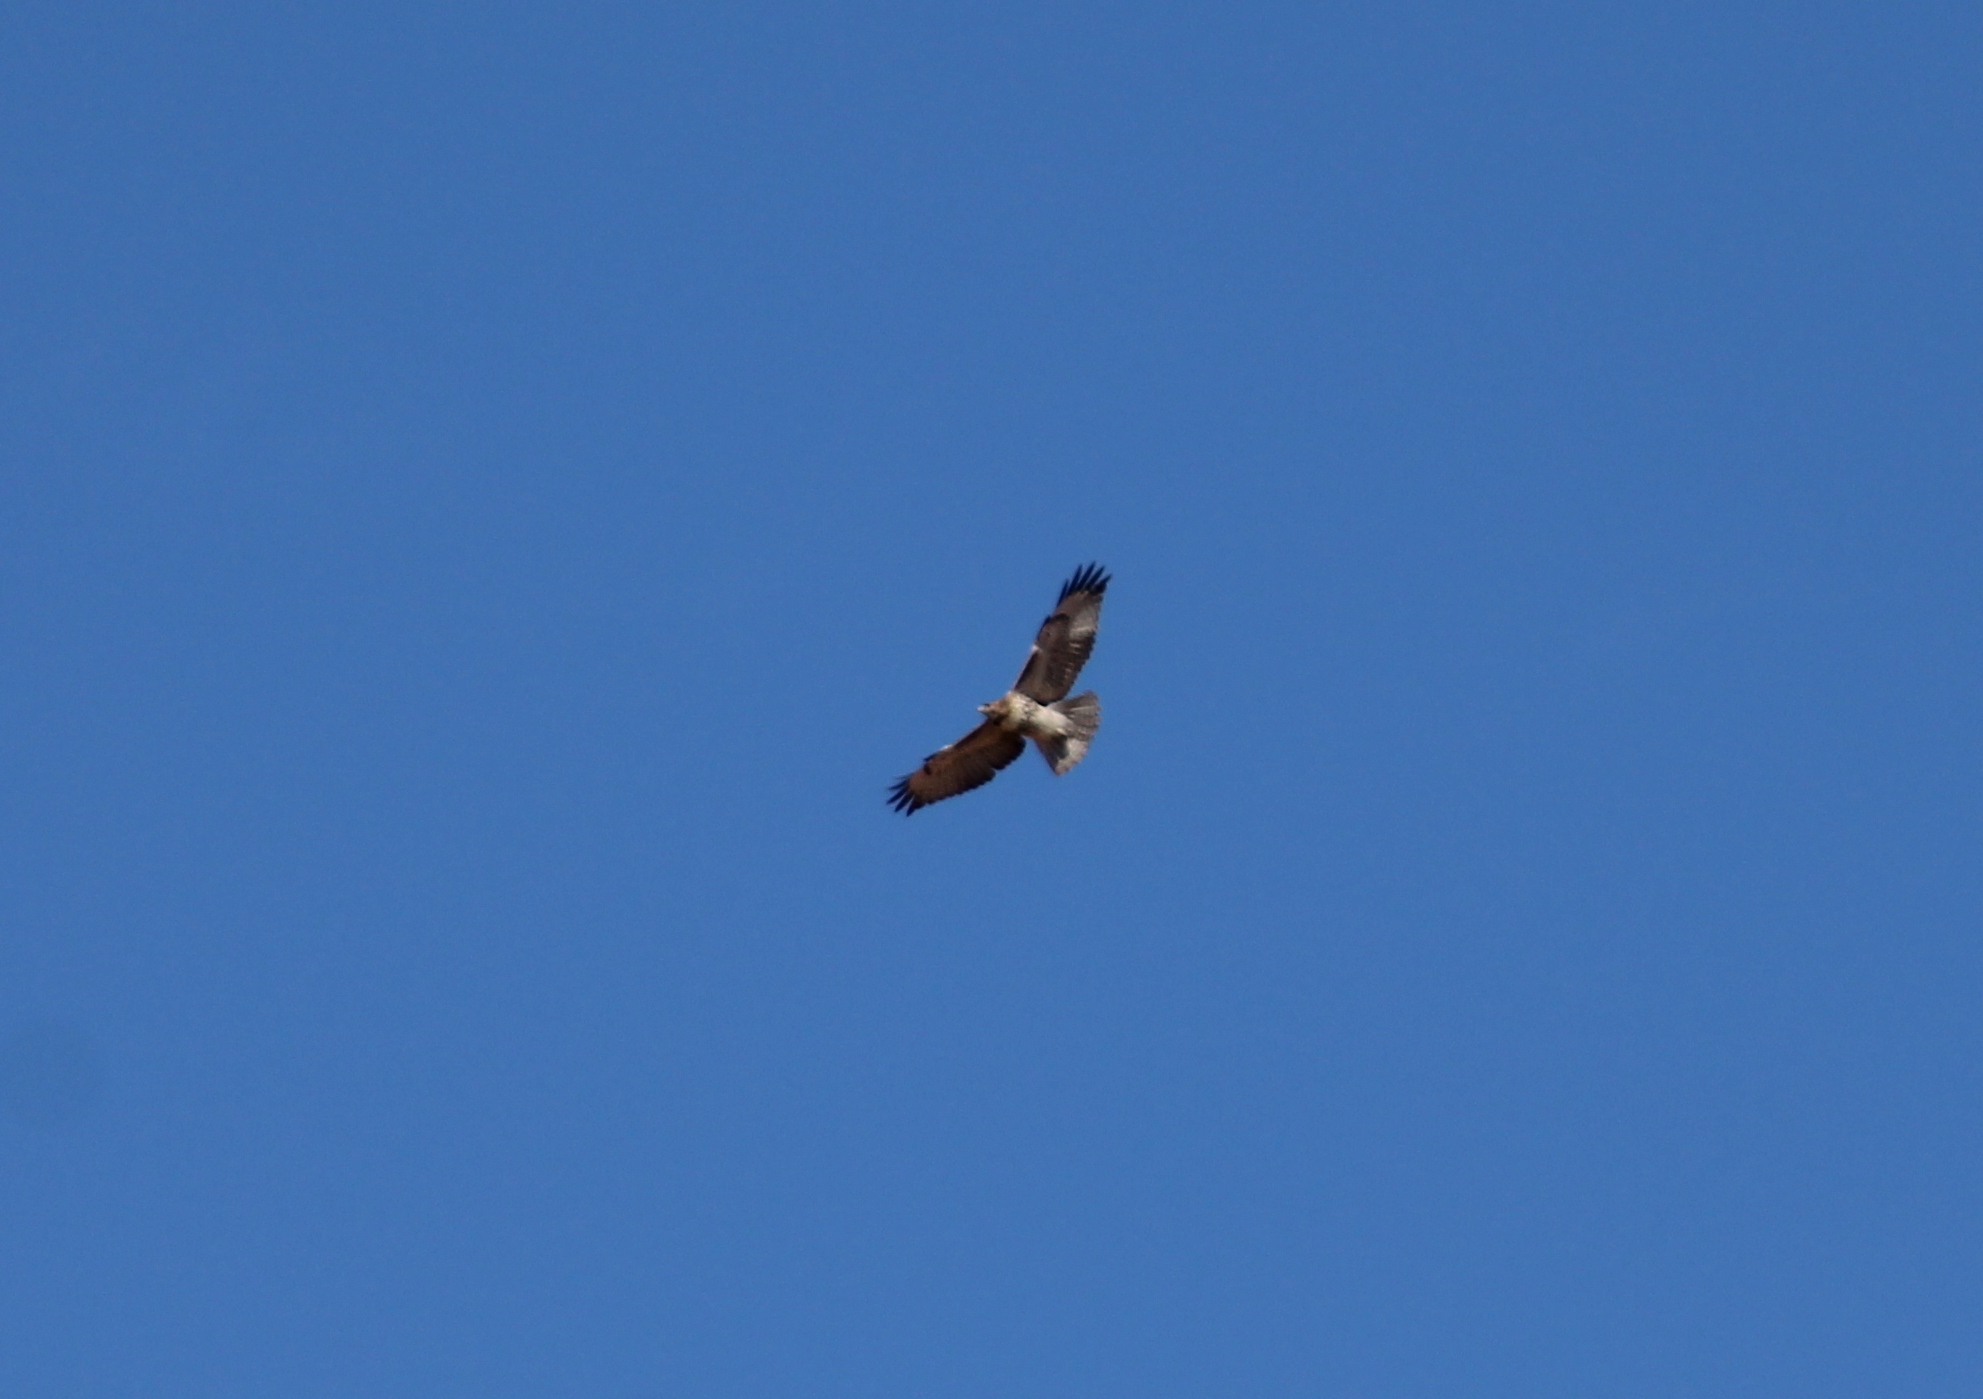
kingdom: Animalia
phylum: Chordata
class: Aves
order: Accipitriformes
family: Accipitridae
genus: Buteo
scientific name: Buteo jamaicensis
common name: Red-tailed hawk
